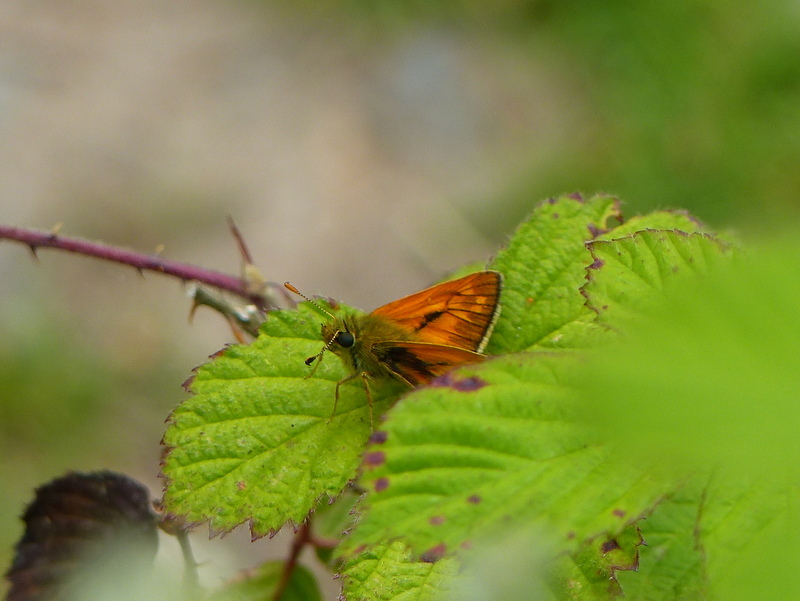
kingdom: Animalia
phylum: Arthropoda
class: Insecta
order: Lepidoptera
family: Hesperiidae
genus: Ochlodes
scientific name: Ochlodes venata
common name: Large skipper
